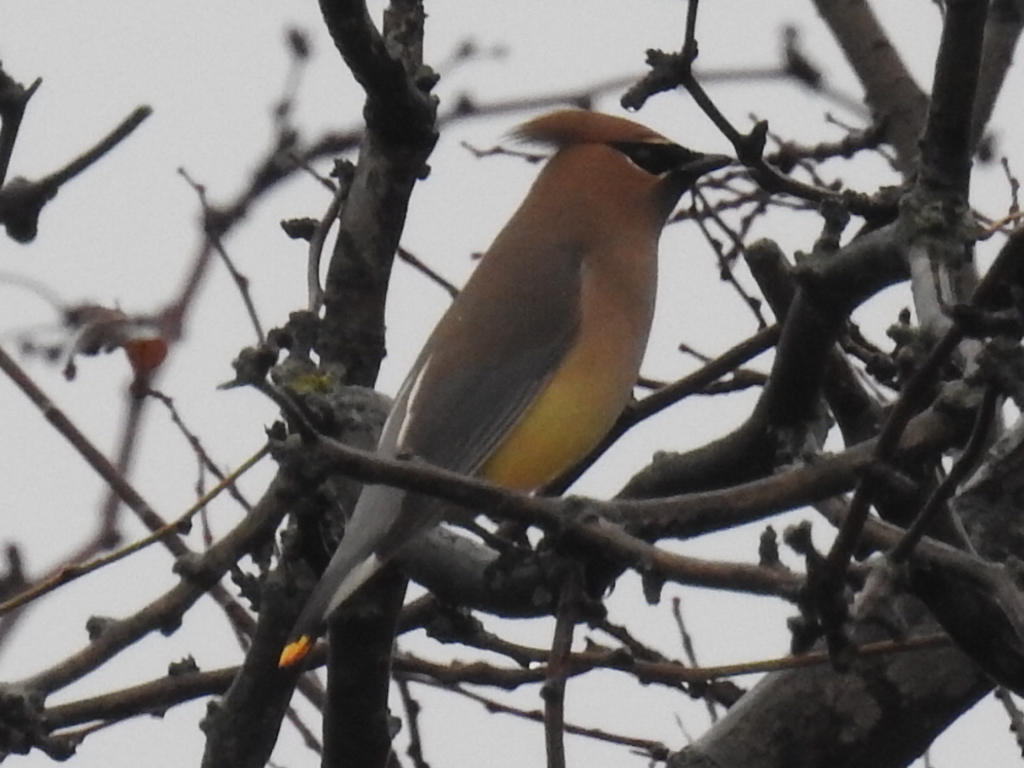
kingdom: Animalia
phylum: Chordata
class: Aves
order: Passeriformes
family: Bombycillidae
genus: Bombycilla
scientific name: Bombycilla cedrorum
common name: Cedar waxwing
